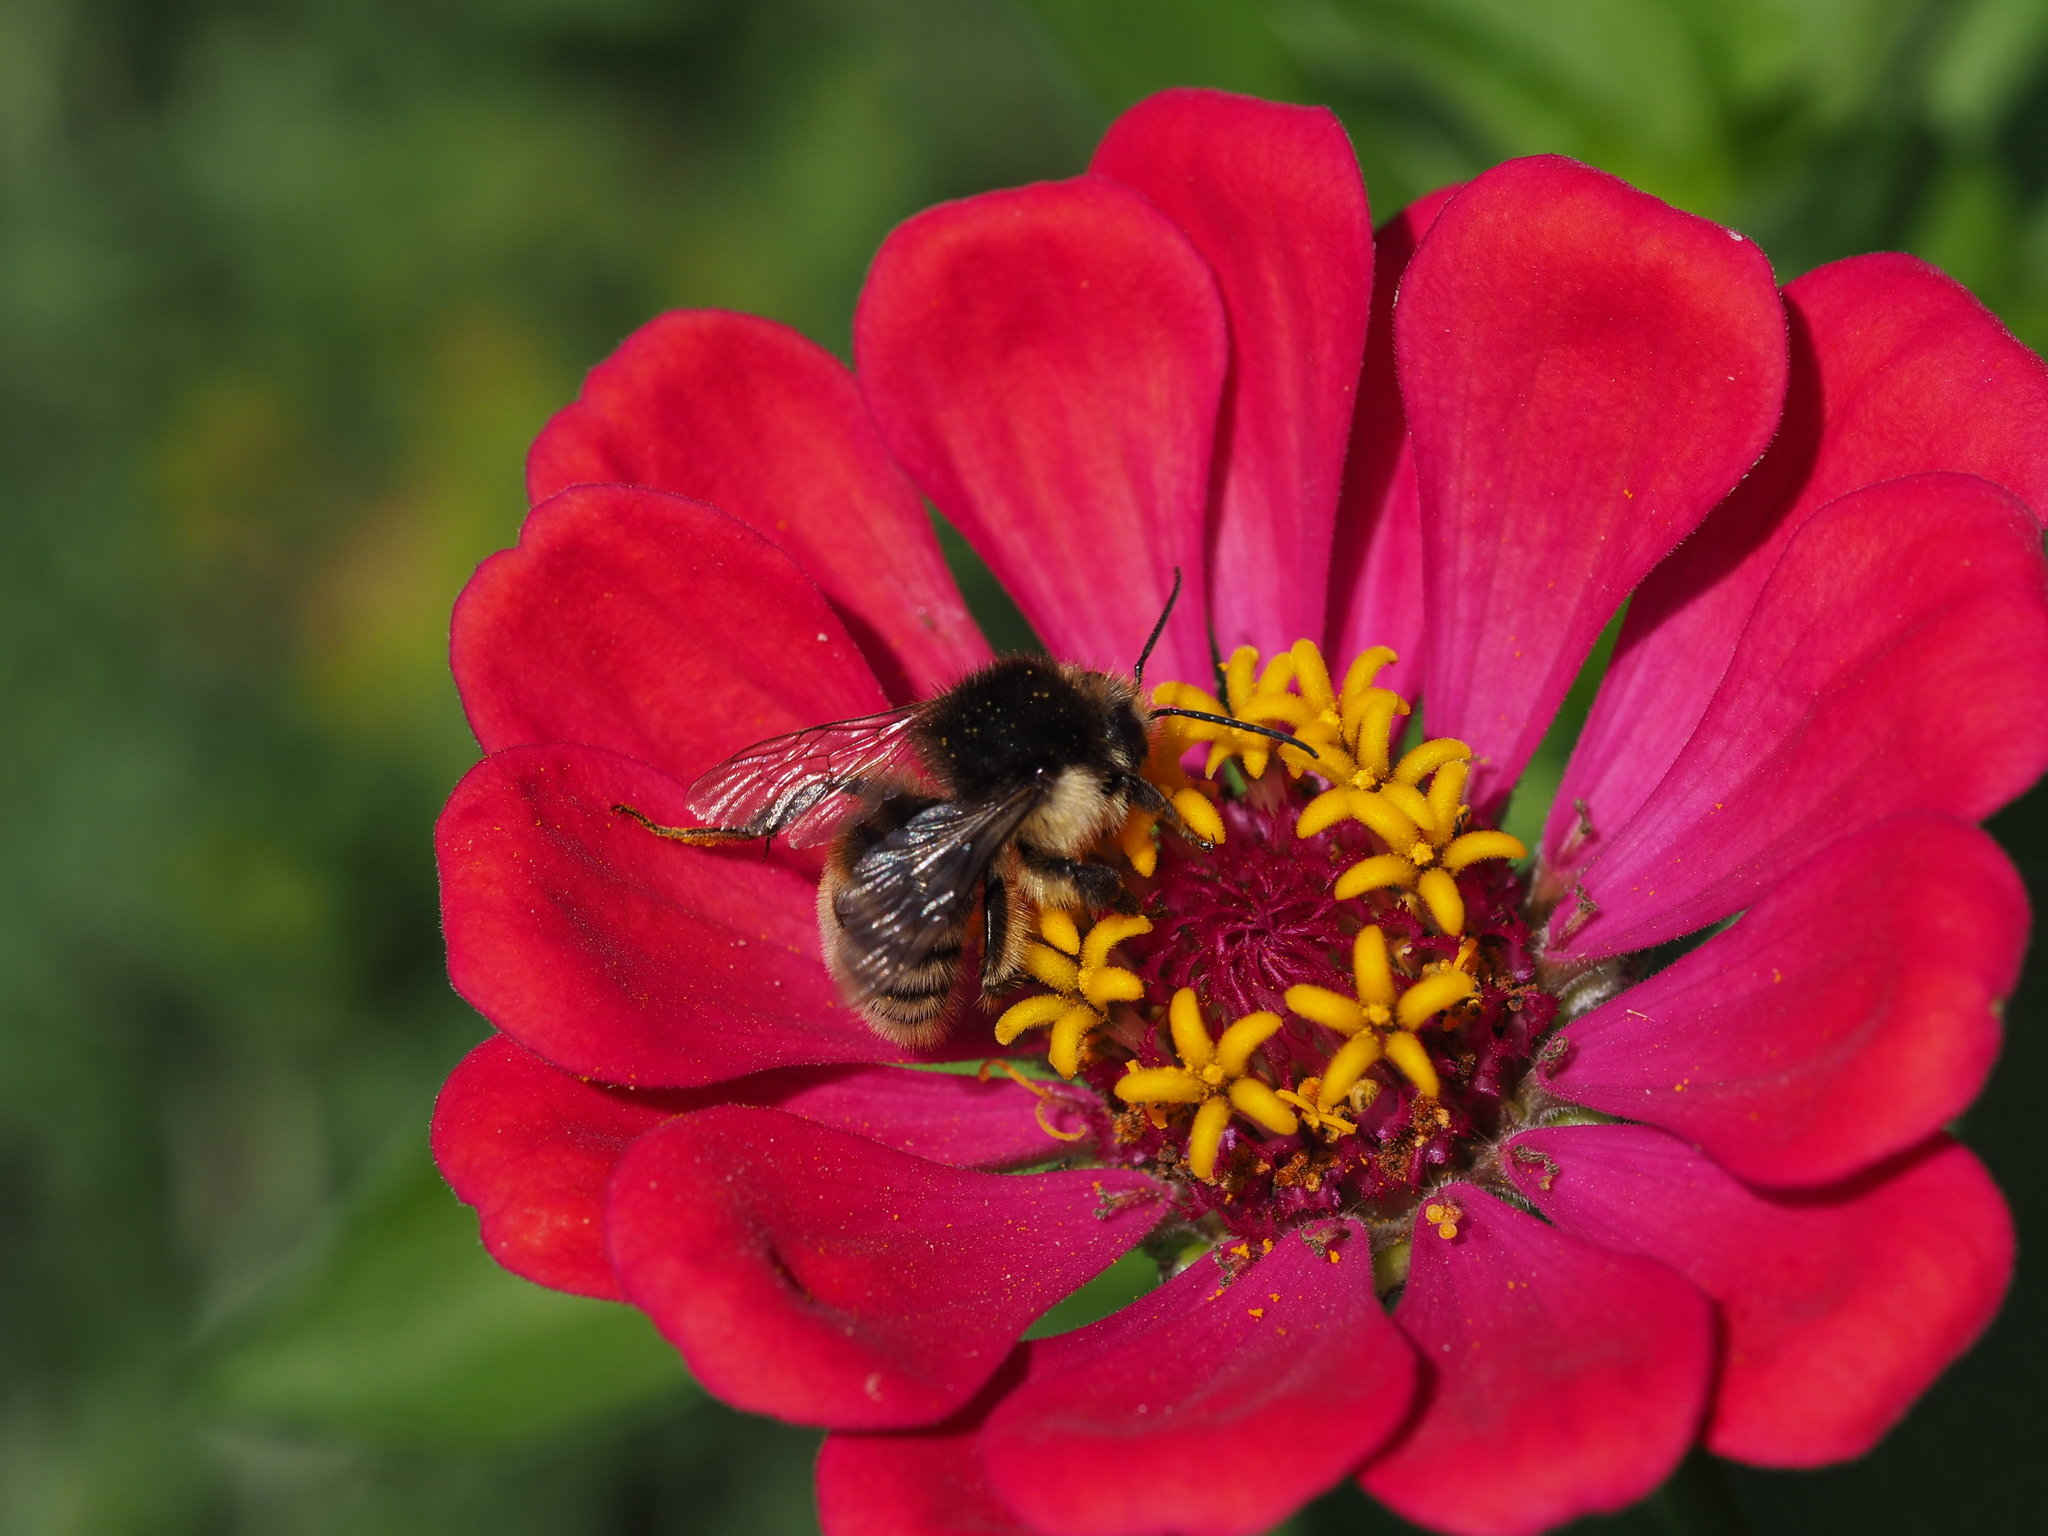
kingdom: Animalia
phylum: Arthropoda
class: Insecta
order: Hymenoptera
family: Apidae
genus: Bombus
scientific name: Bombus humilis
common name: Brown-banded carder-bee
